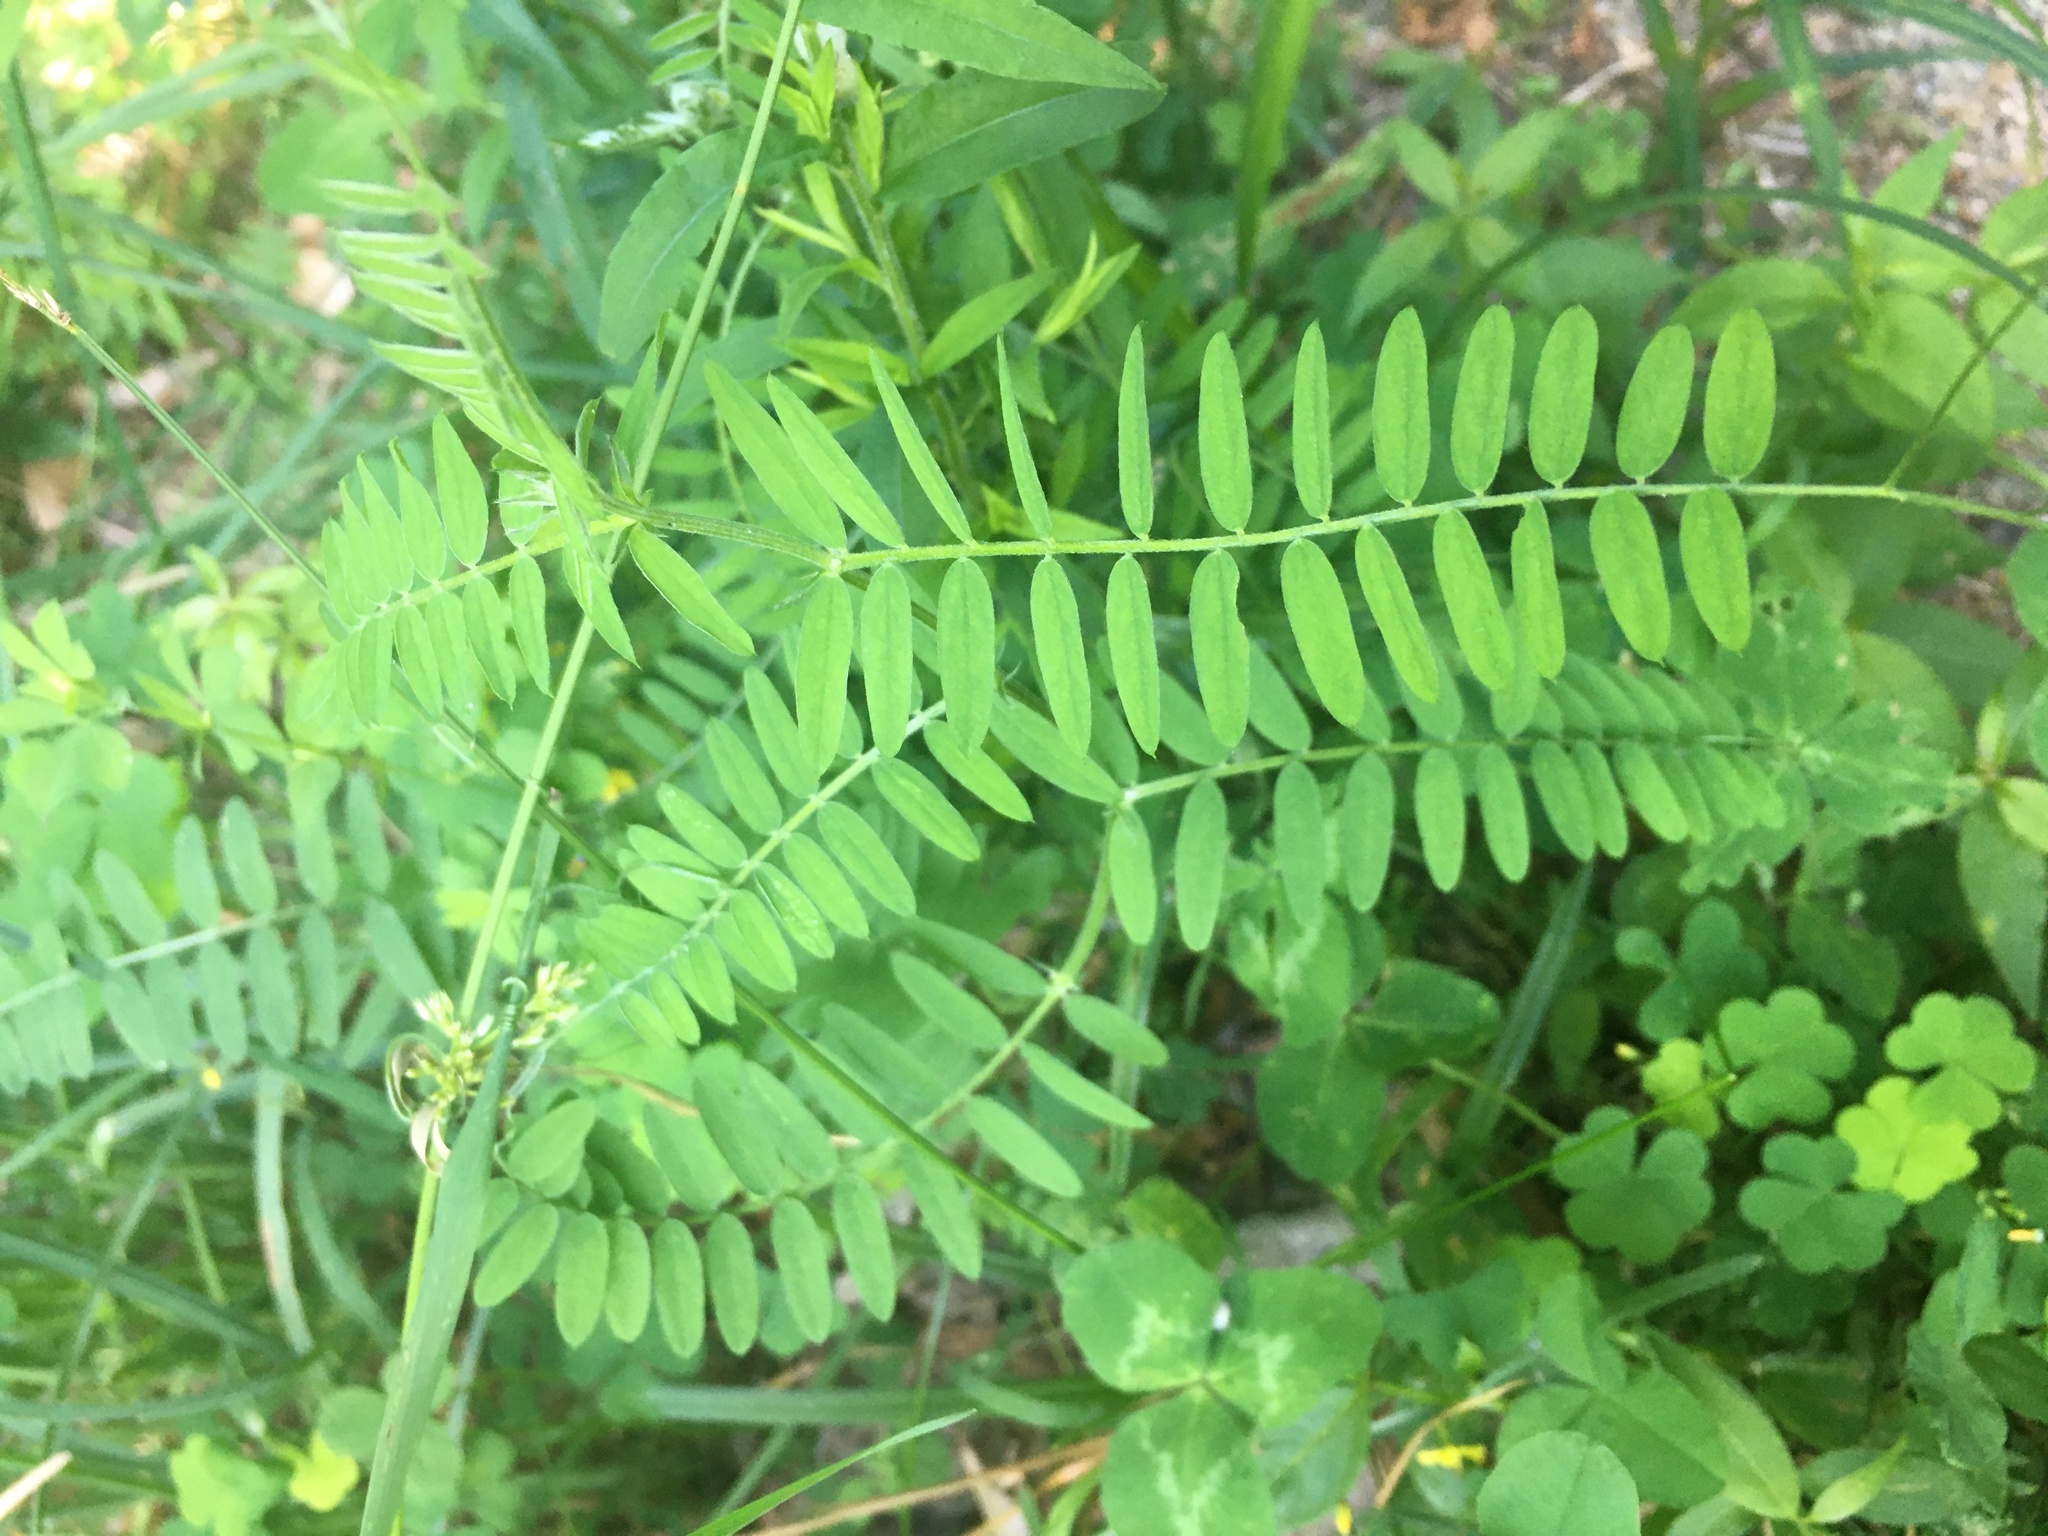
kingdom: Plantae
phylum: Tracheophyta
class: Magnoliopsida
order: Fabales
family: Fabaceae
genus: Vicia
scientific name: Vicia cracca
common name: Bird vetch
